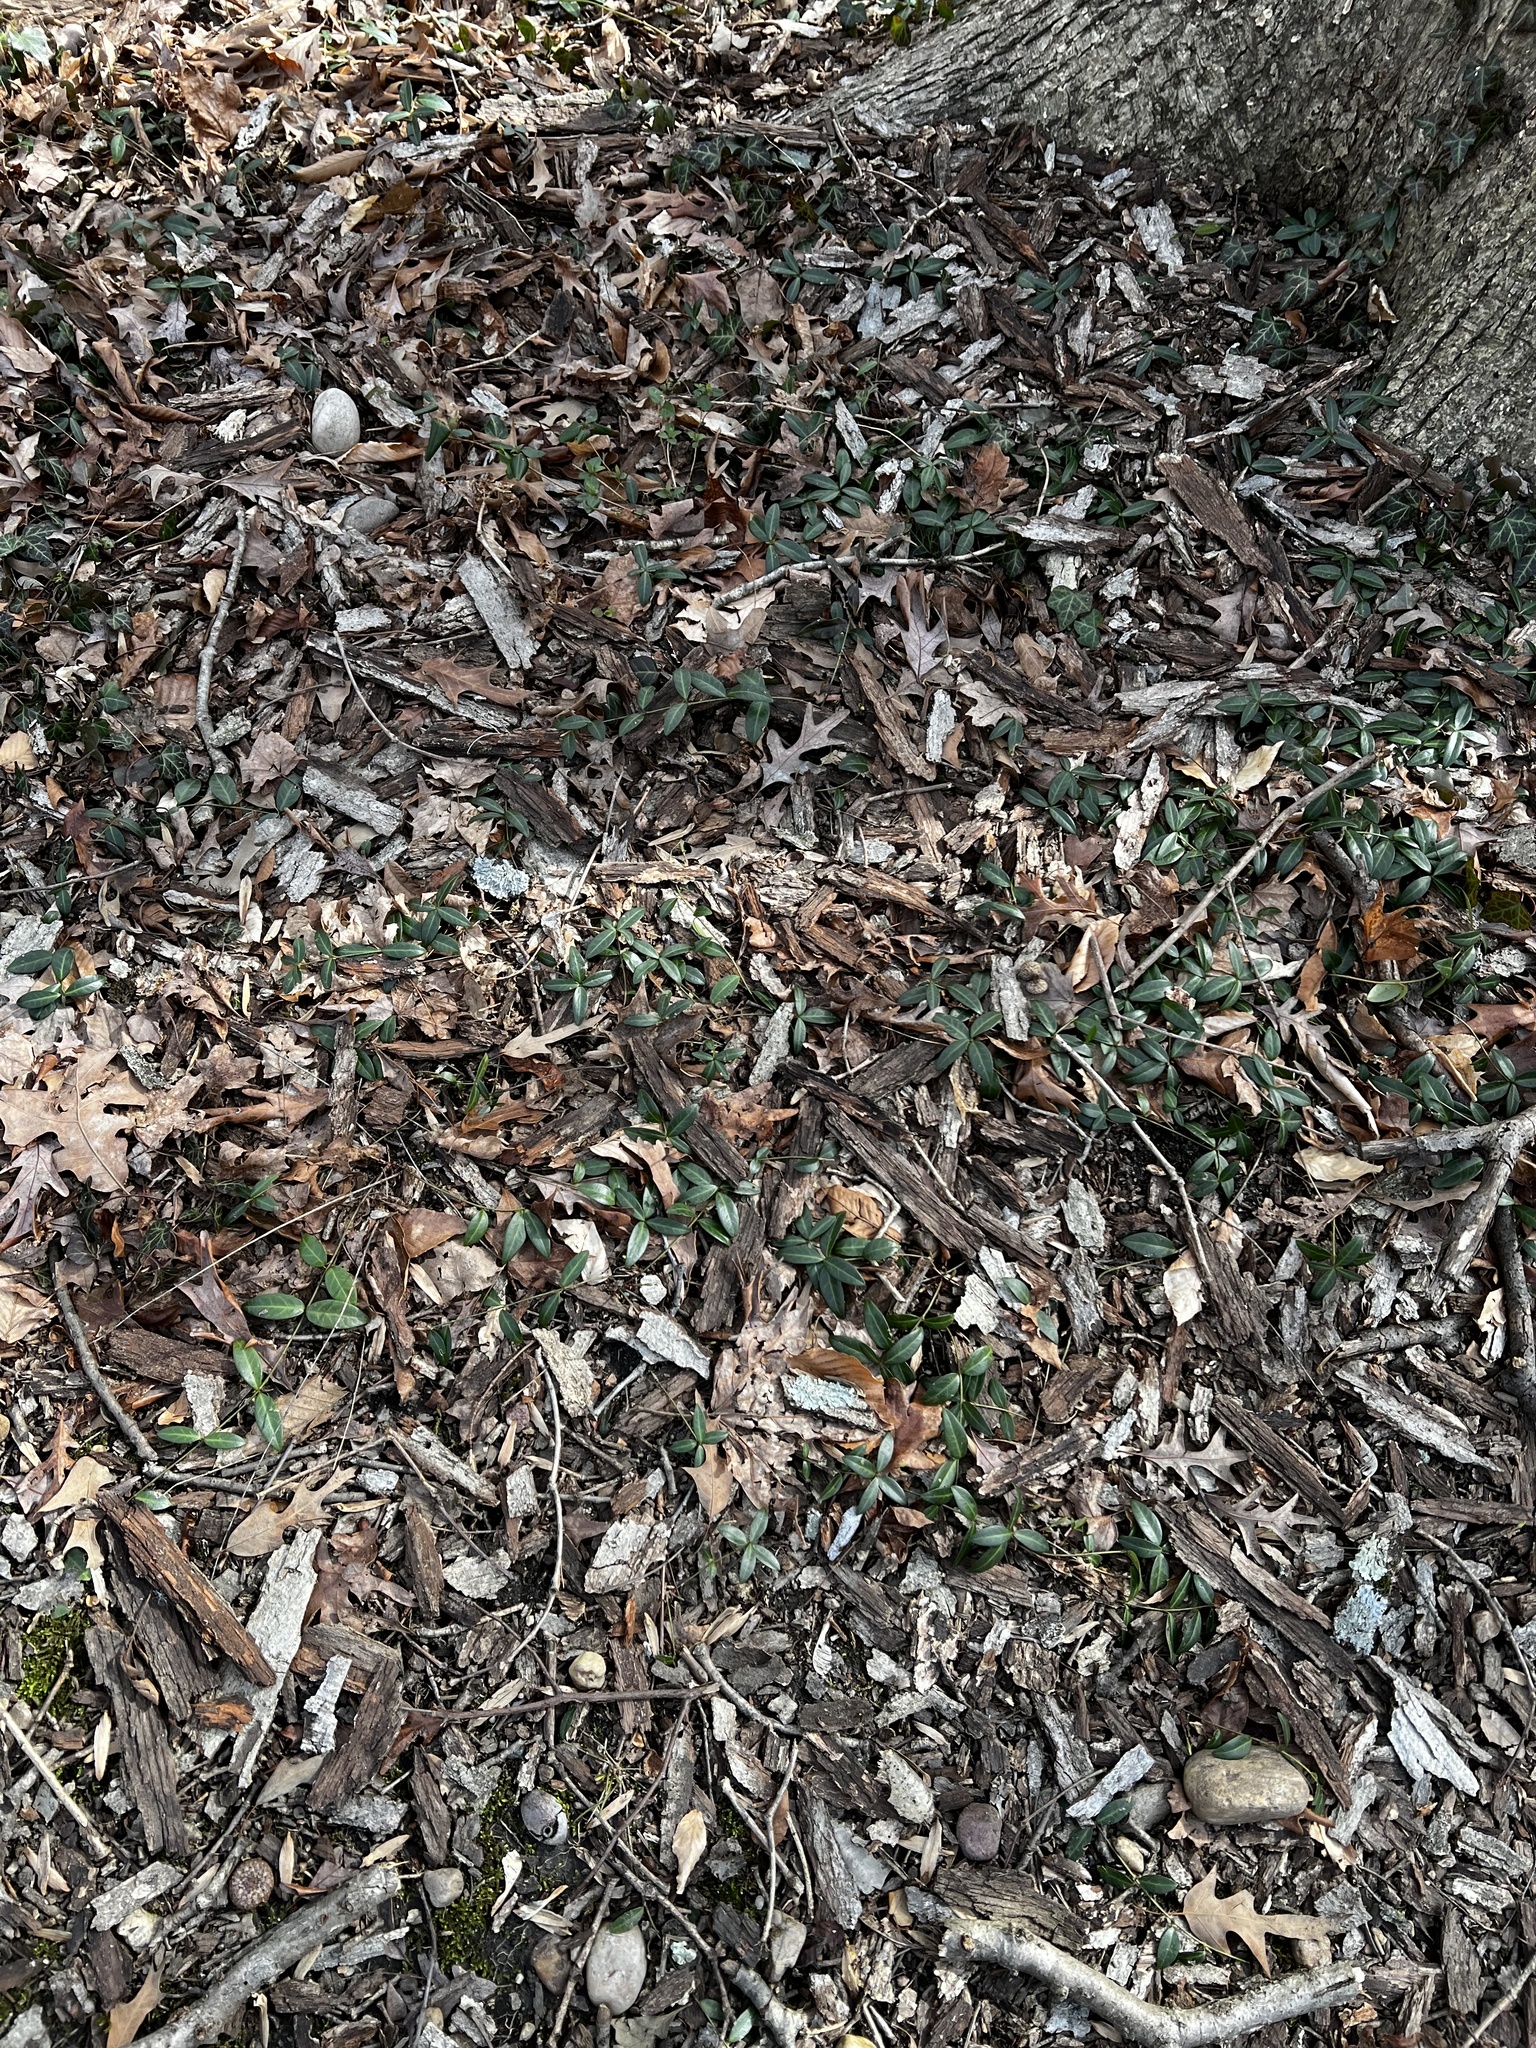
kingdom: Plantae
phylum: Tracheophyta
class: Magnoliopsida
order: Gentianales
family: Apocynaceae
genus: Vinca
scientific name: Vinca minor
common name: Lesser periwinkle
